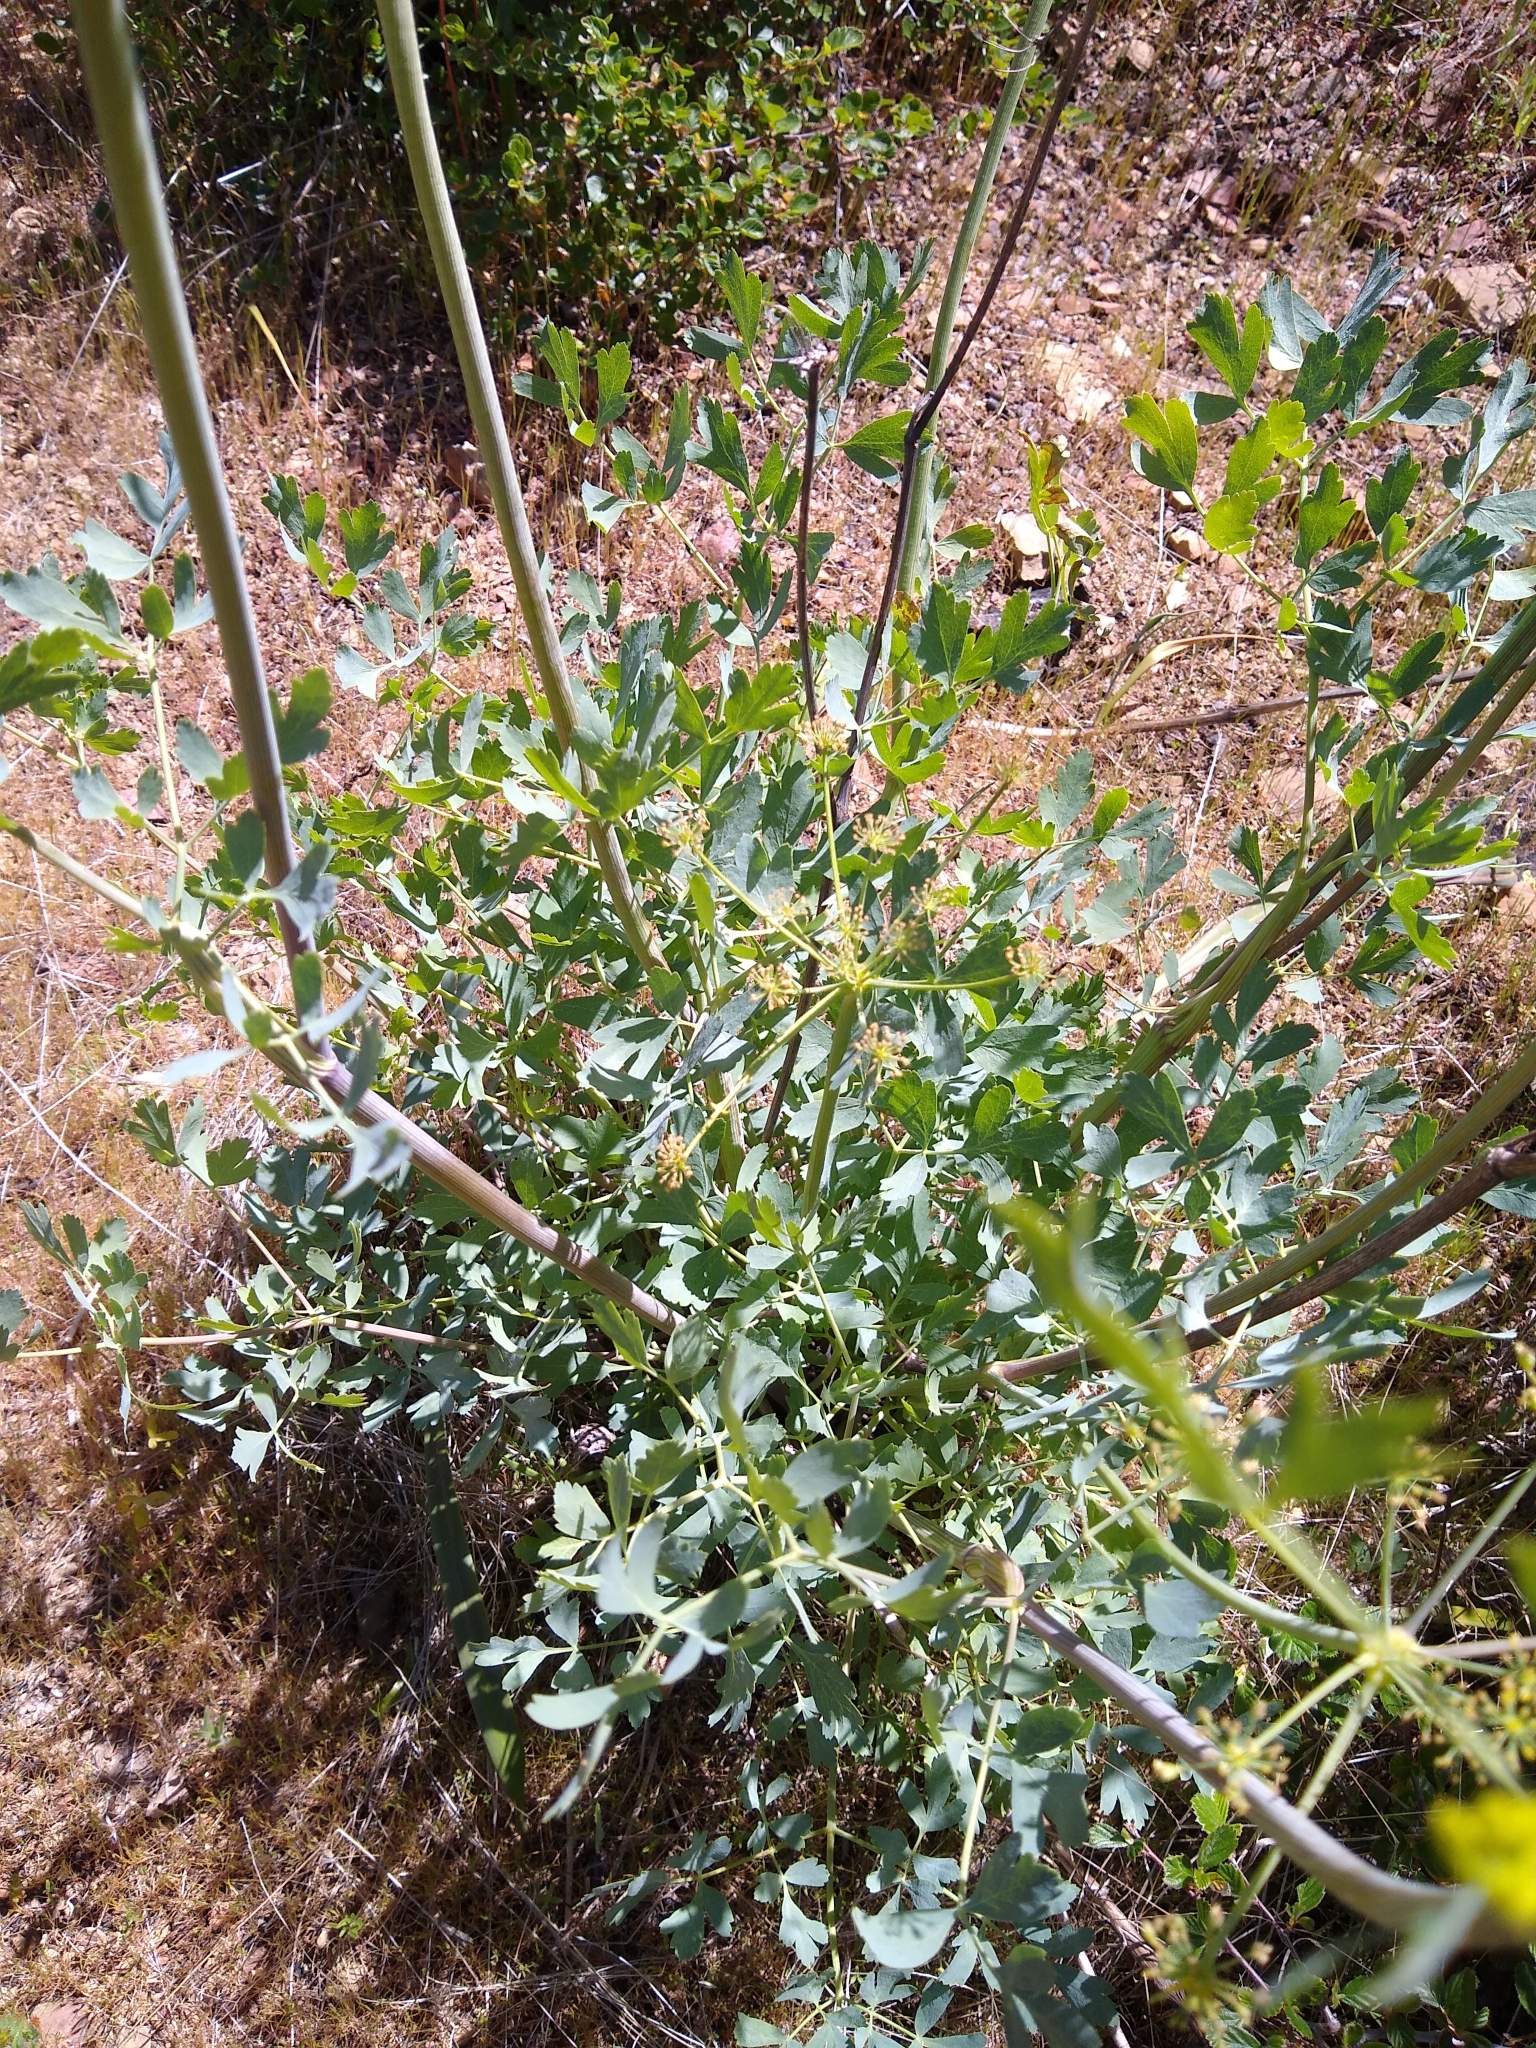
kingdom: Plantae
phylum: Tracheophyta
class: Magnoliopsida
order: Apiales
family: Apiaceae
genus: Lomatium
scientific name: Lomatium californicum
